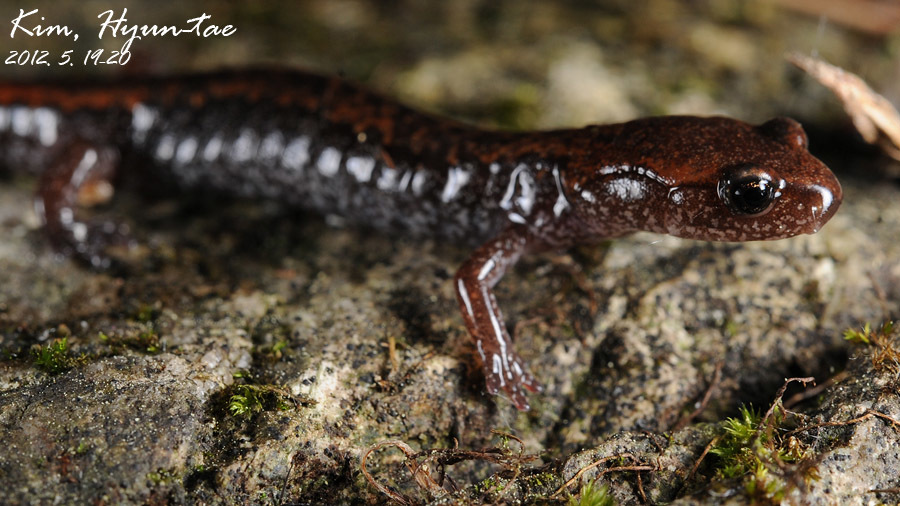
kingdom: Animalia
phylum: Chordata
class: Amphibia
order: Caudata
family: Plethodontidae
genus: Karsenia
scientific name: Karsenia koreana
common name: Korean crevice salamander
